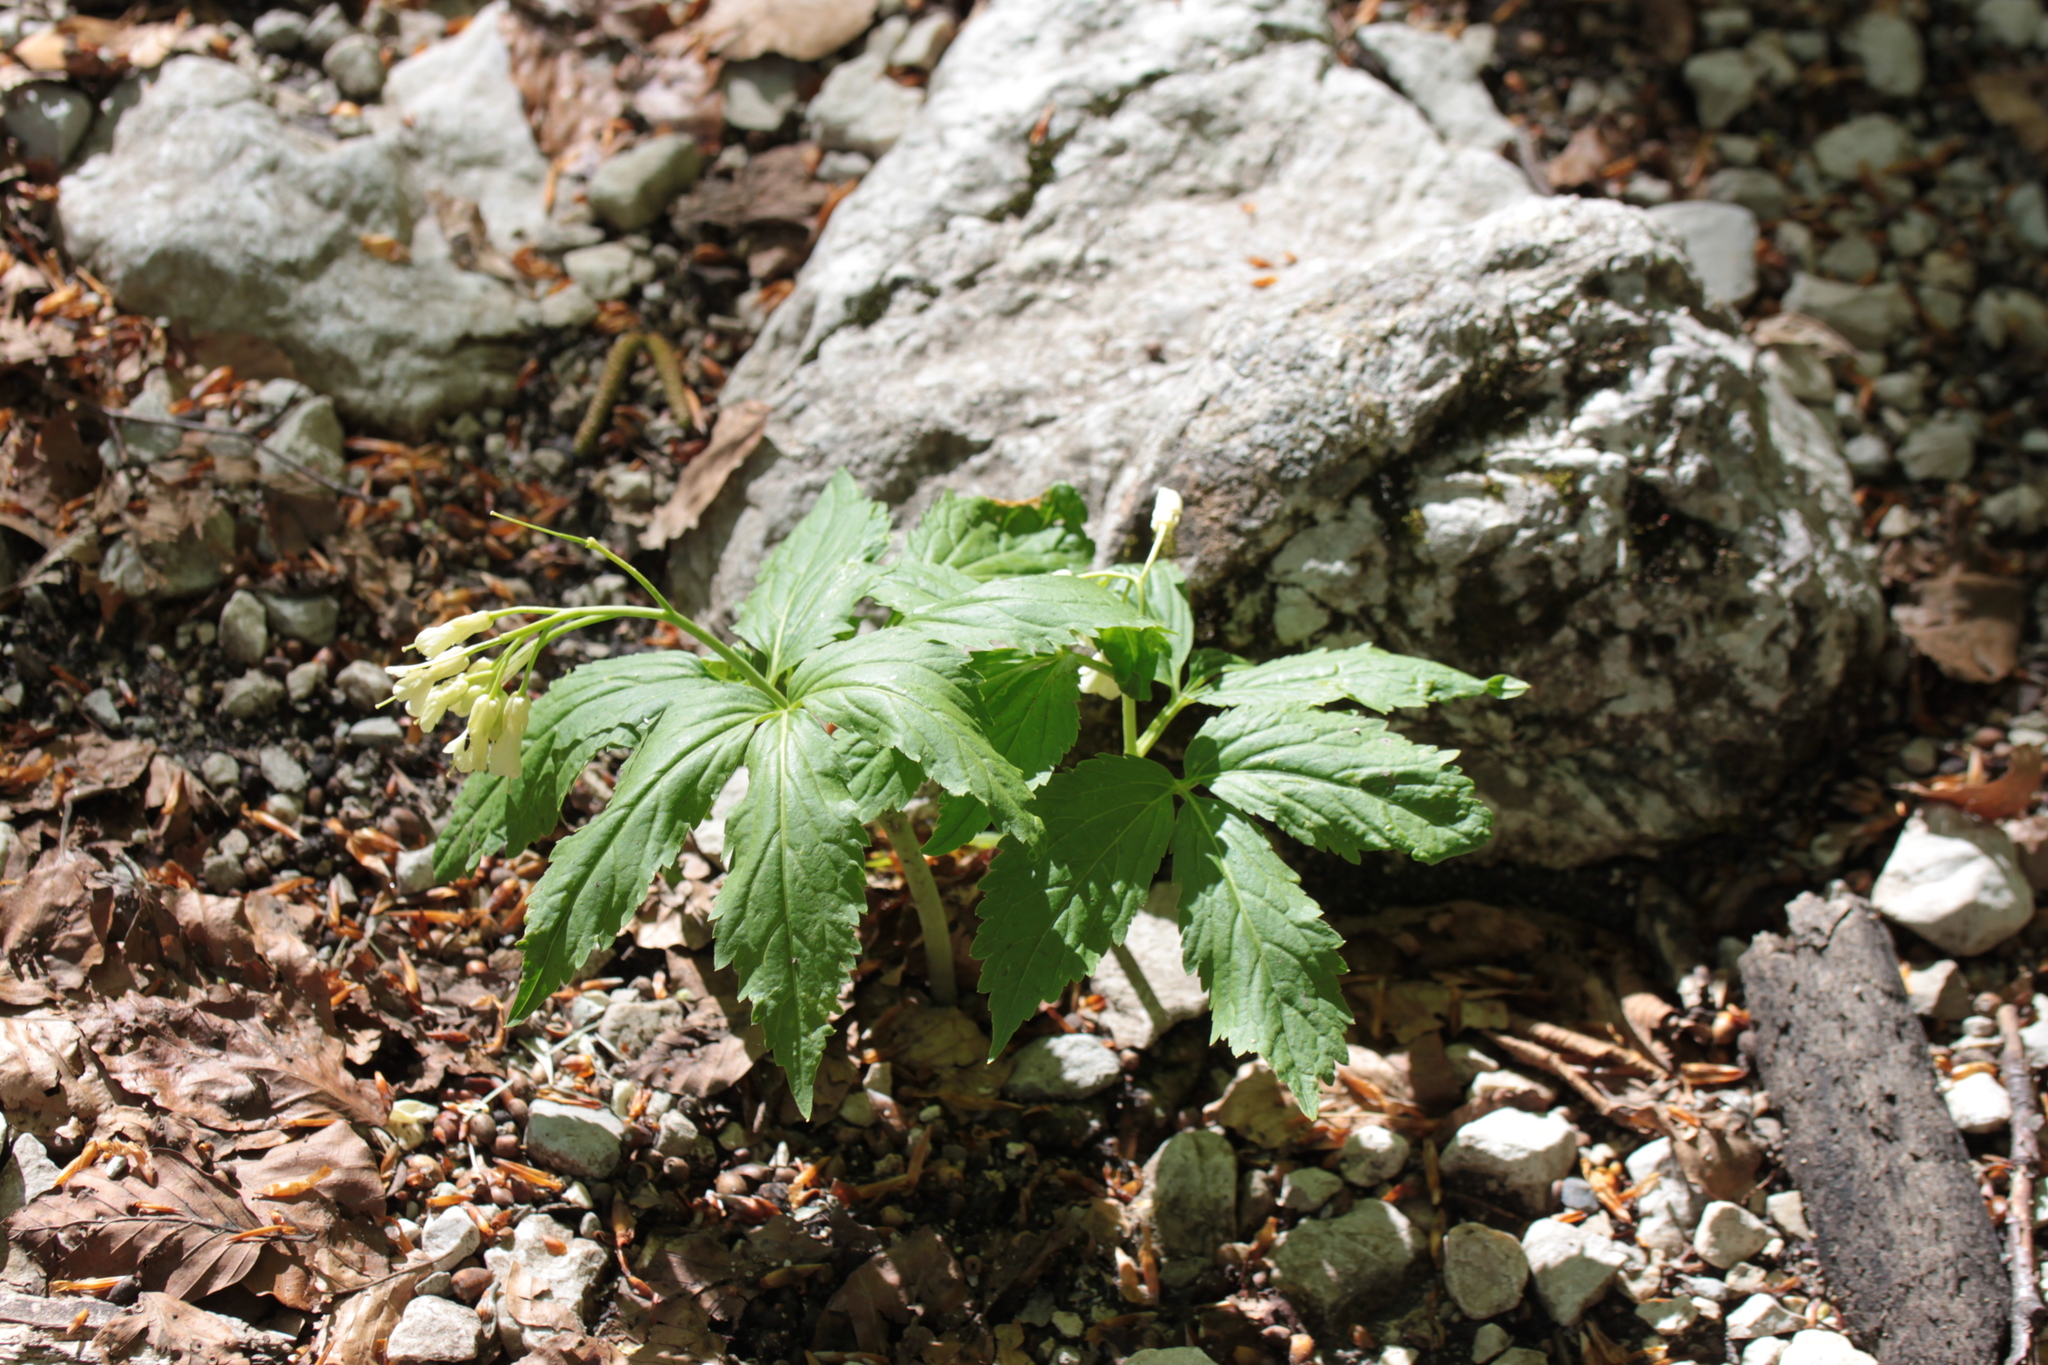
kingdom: Plantae
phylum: Tracheophyta
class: Magnoliopsida
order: Brassicales
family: Brassicaceae
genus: Cardamine
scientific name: Cardamine enneaphyllos
